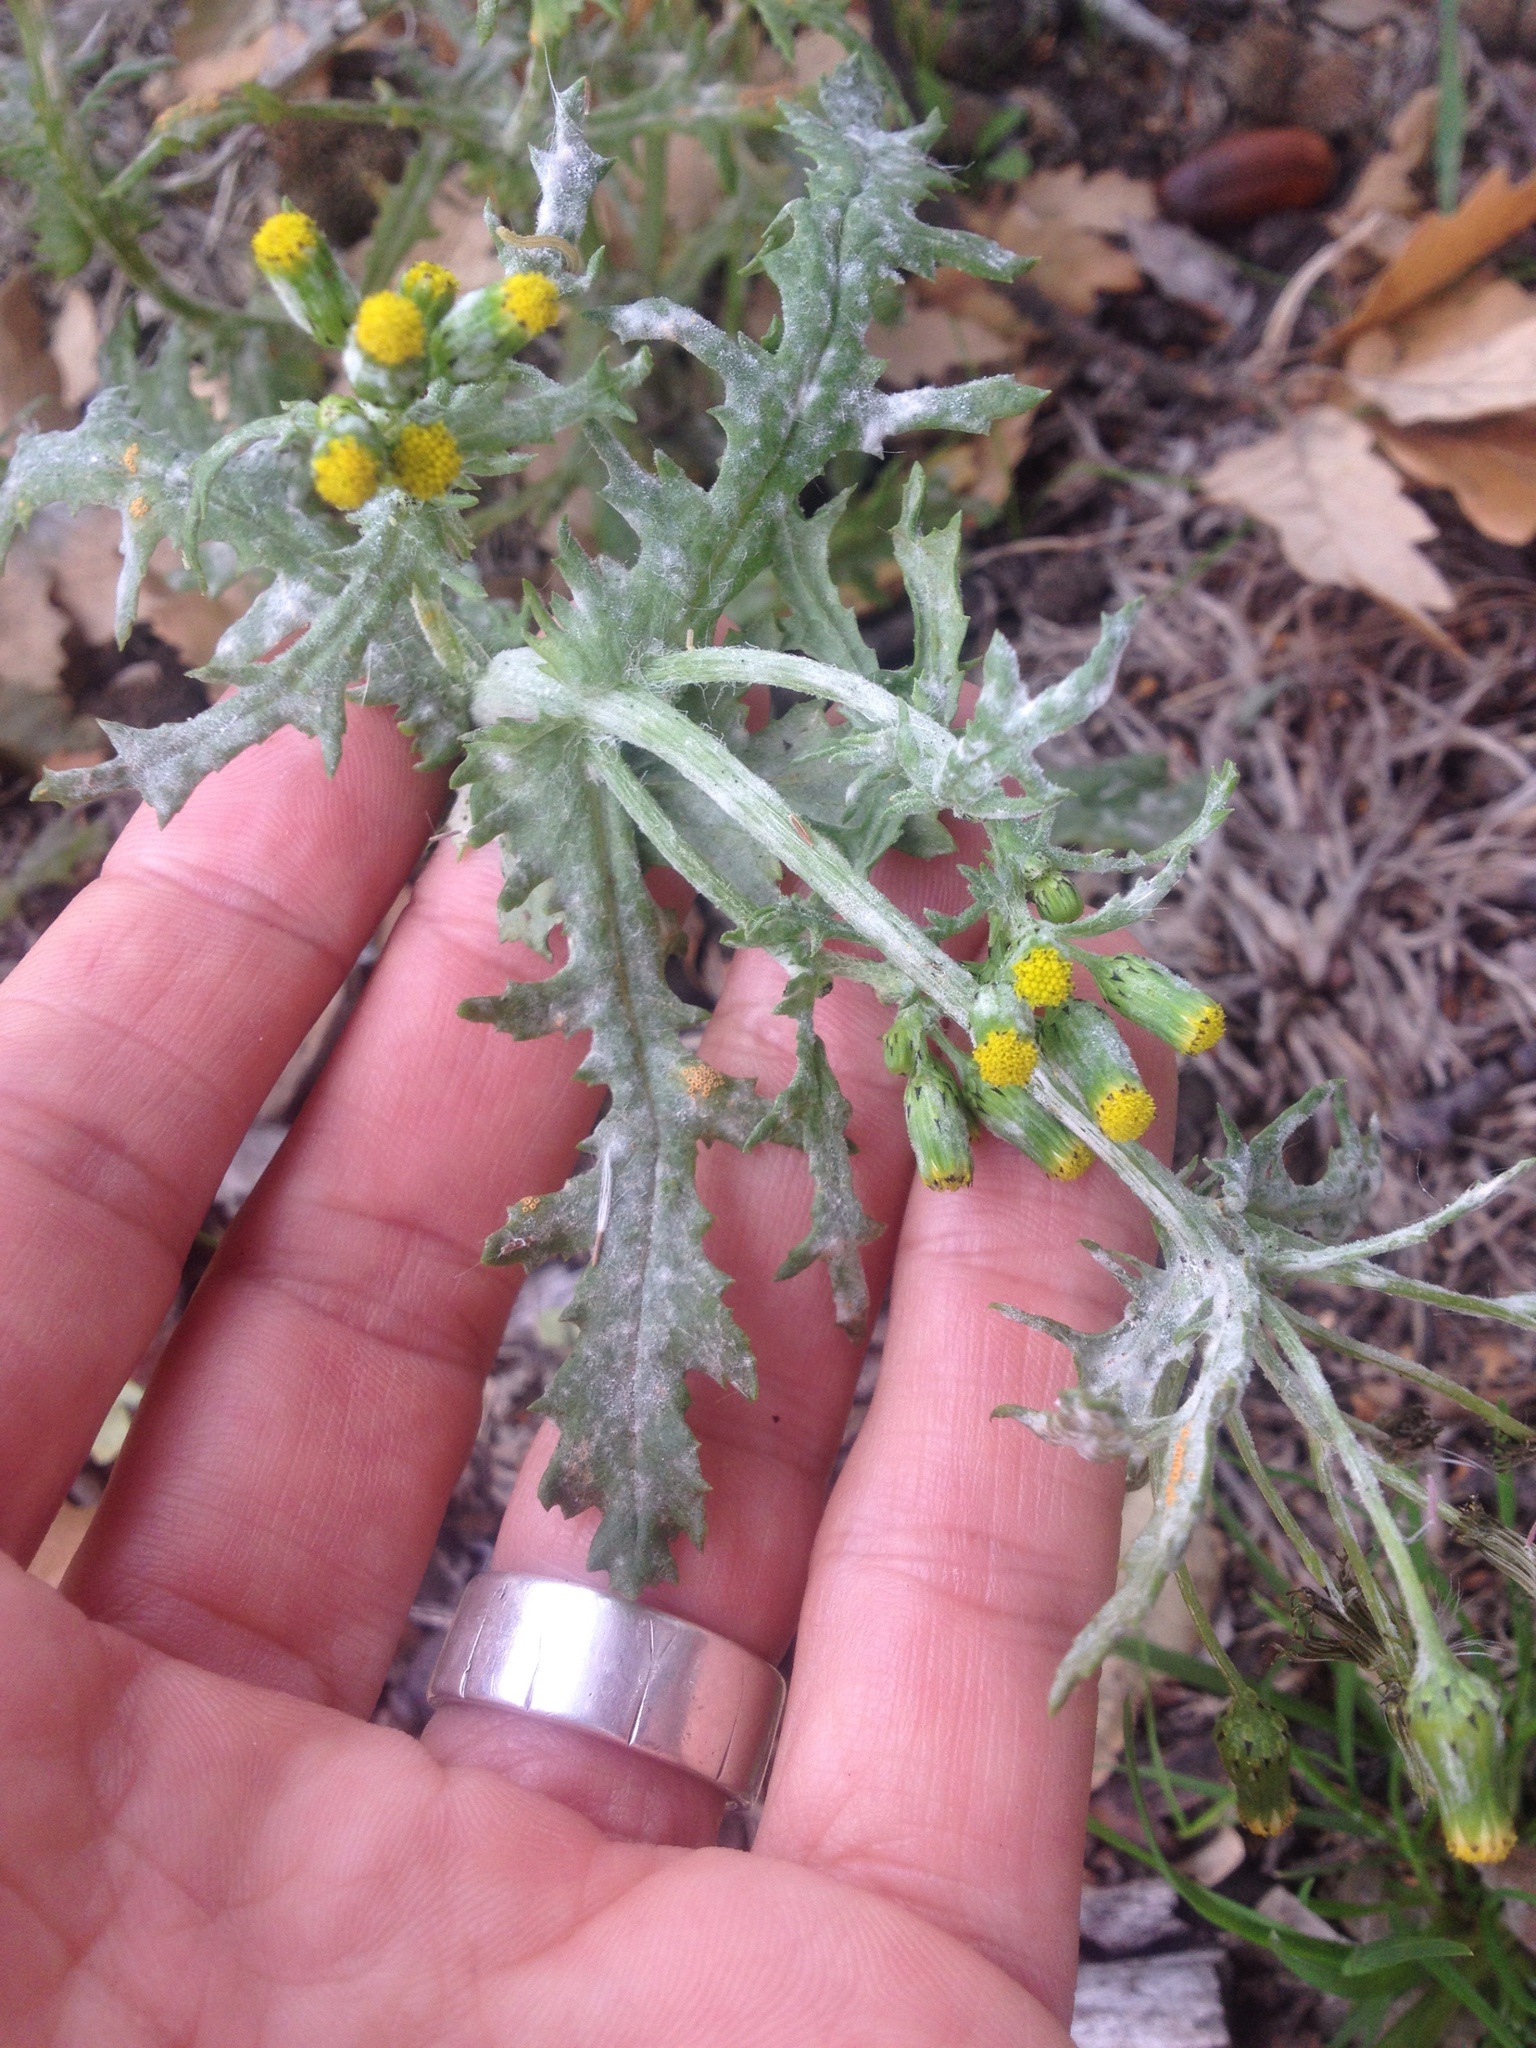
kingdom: Fungi
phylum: Ascomycota
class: Leotiomycetes
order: Helotiales
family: Erysiphaceae
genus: Golovinomyces
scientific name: Golovinomyces fischeri
